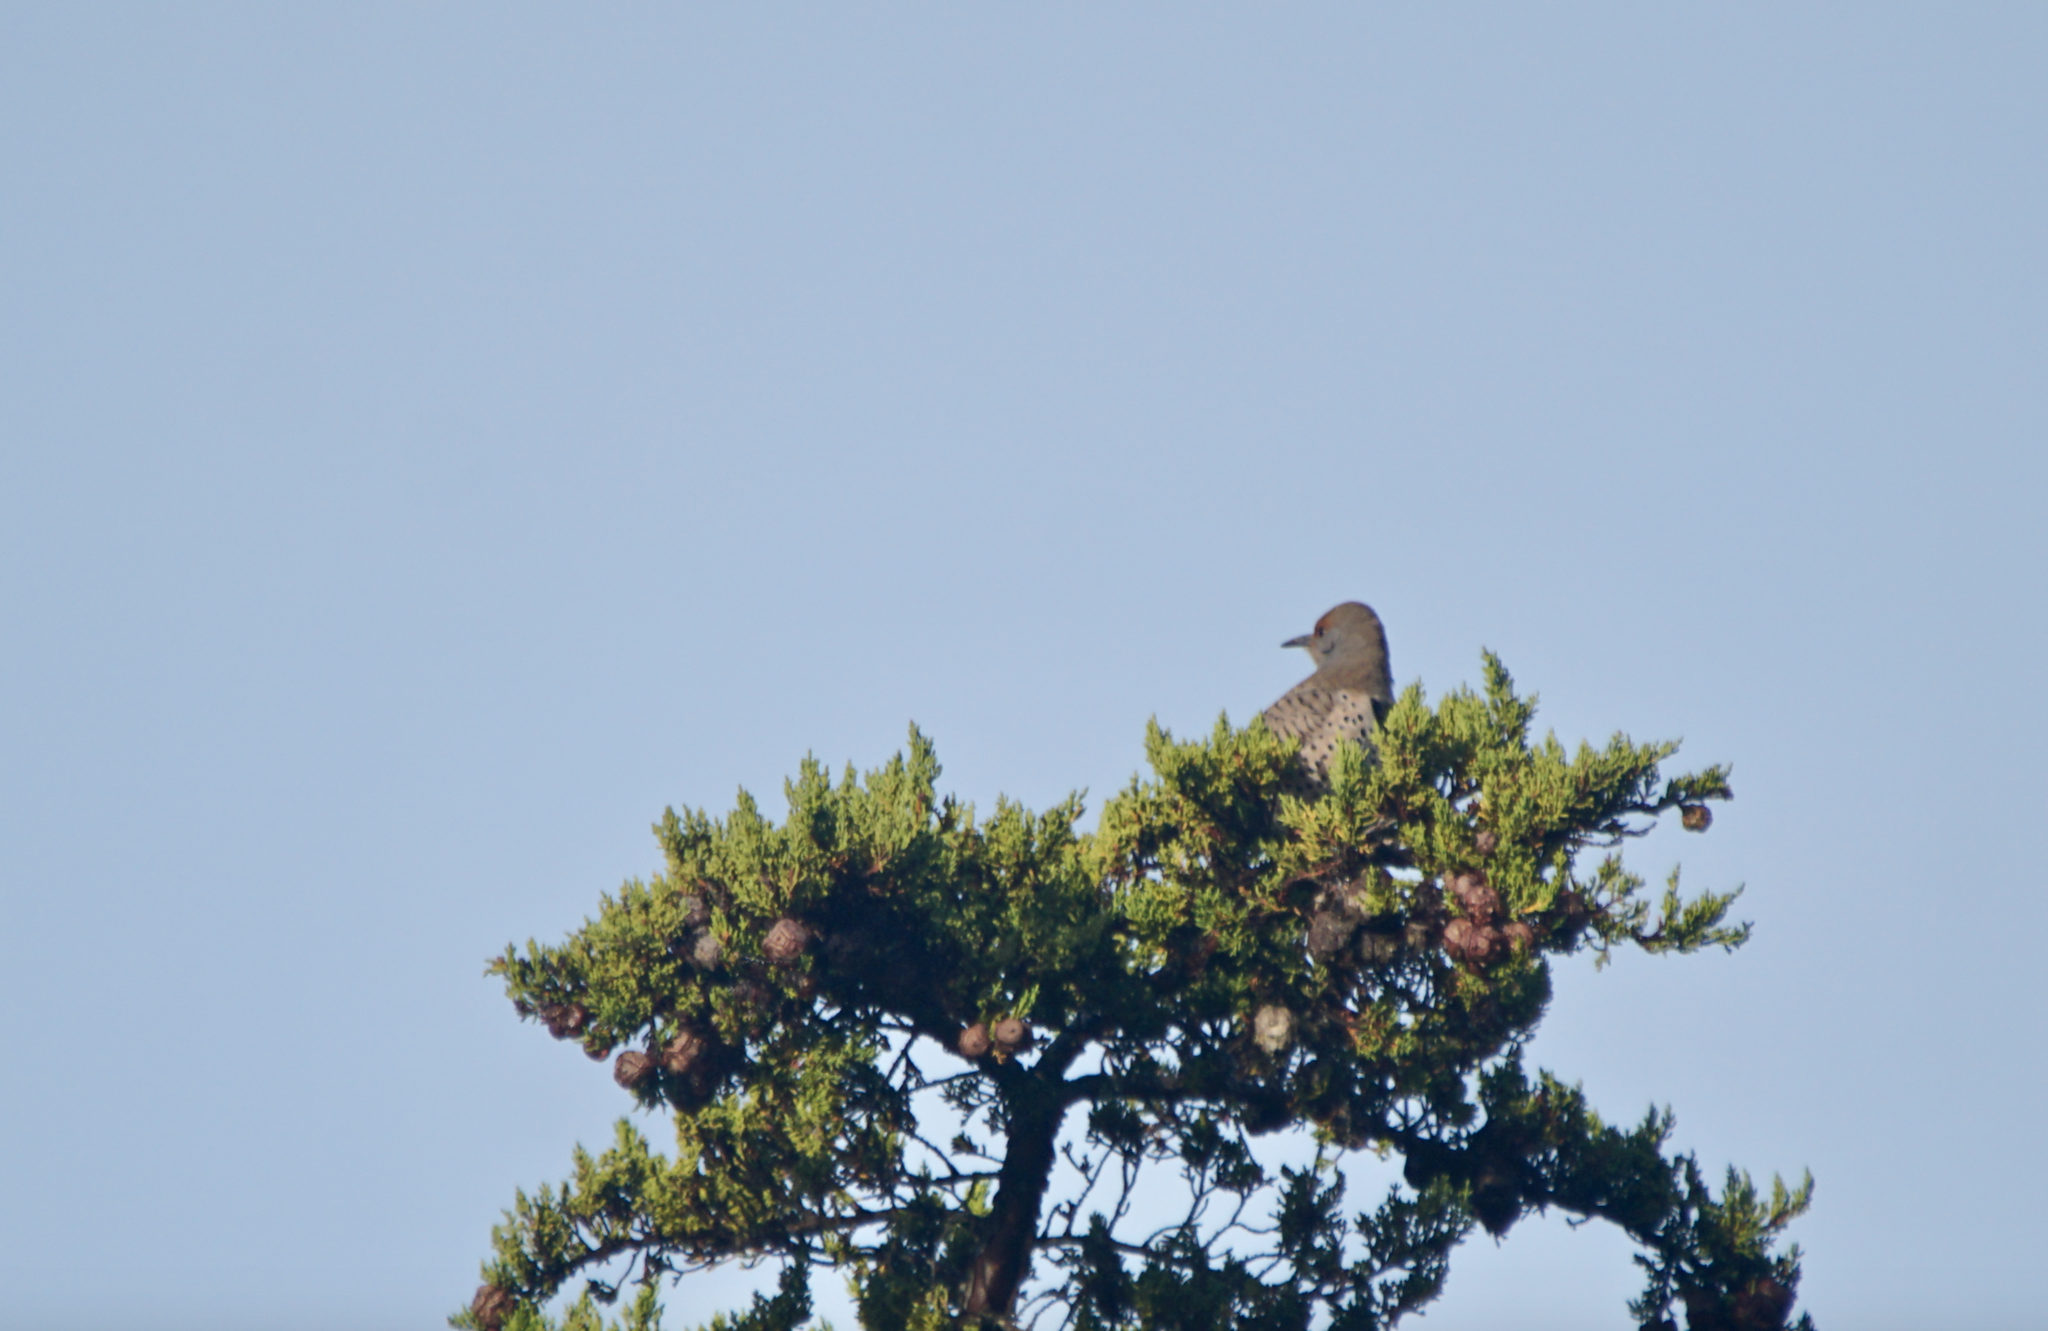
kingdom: Animalia
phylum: Chordata
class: Aves
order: Piciformes
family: Picidae
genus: Colaptes
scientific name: Colaptes auratus
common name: Northern flicker
